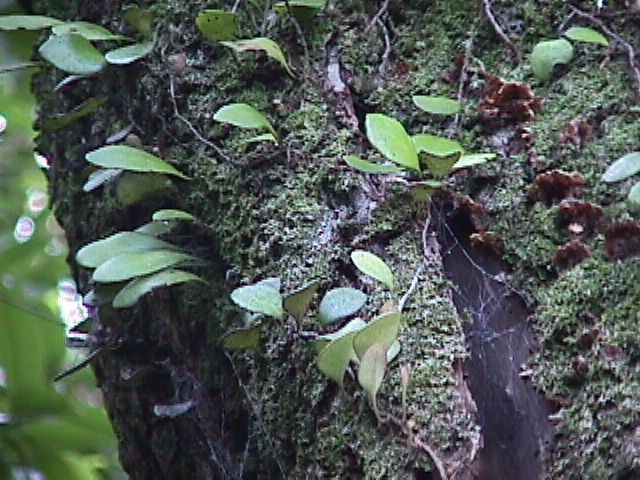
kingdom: Plantae
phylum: Tracheophyta
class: Polypodiopsida
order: Polypodiales
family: Polypodiaceae
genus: Pyrrosia
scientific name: Pyrrosia eleagnifolia
